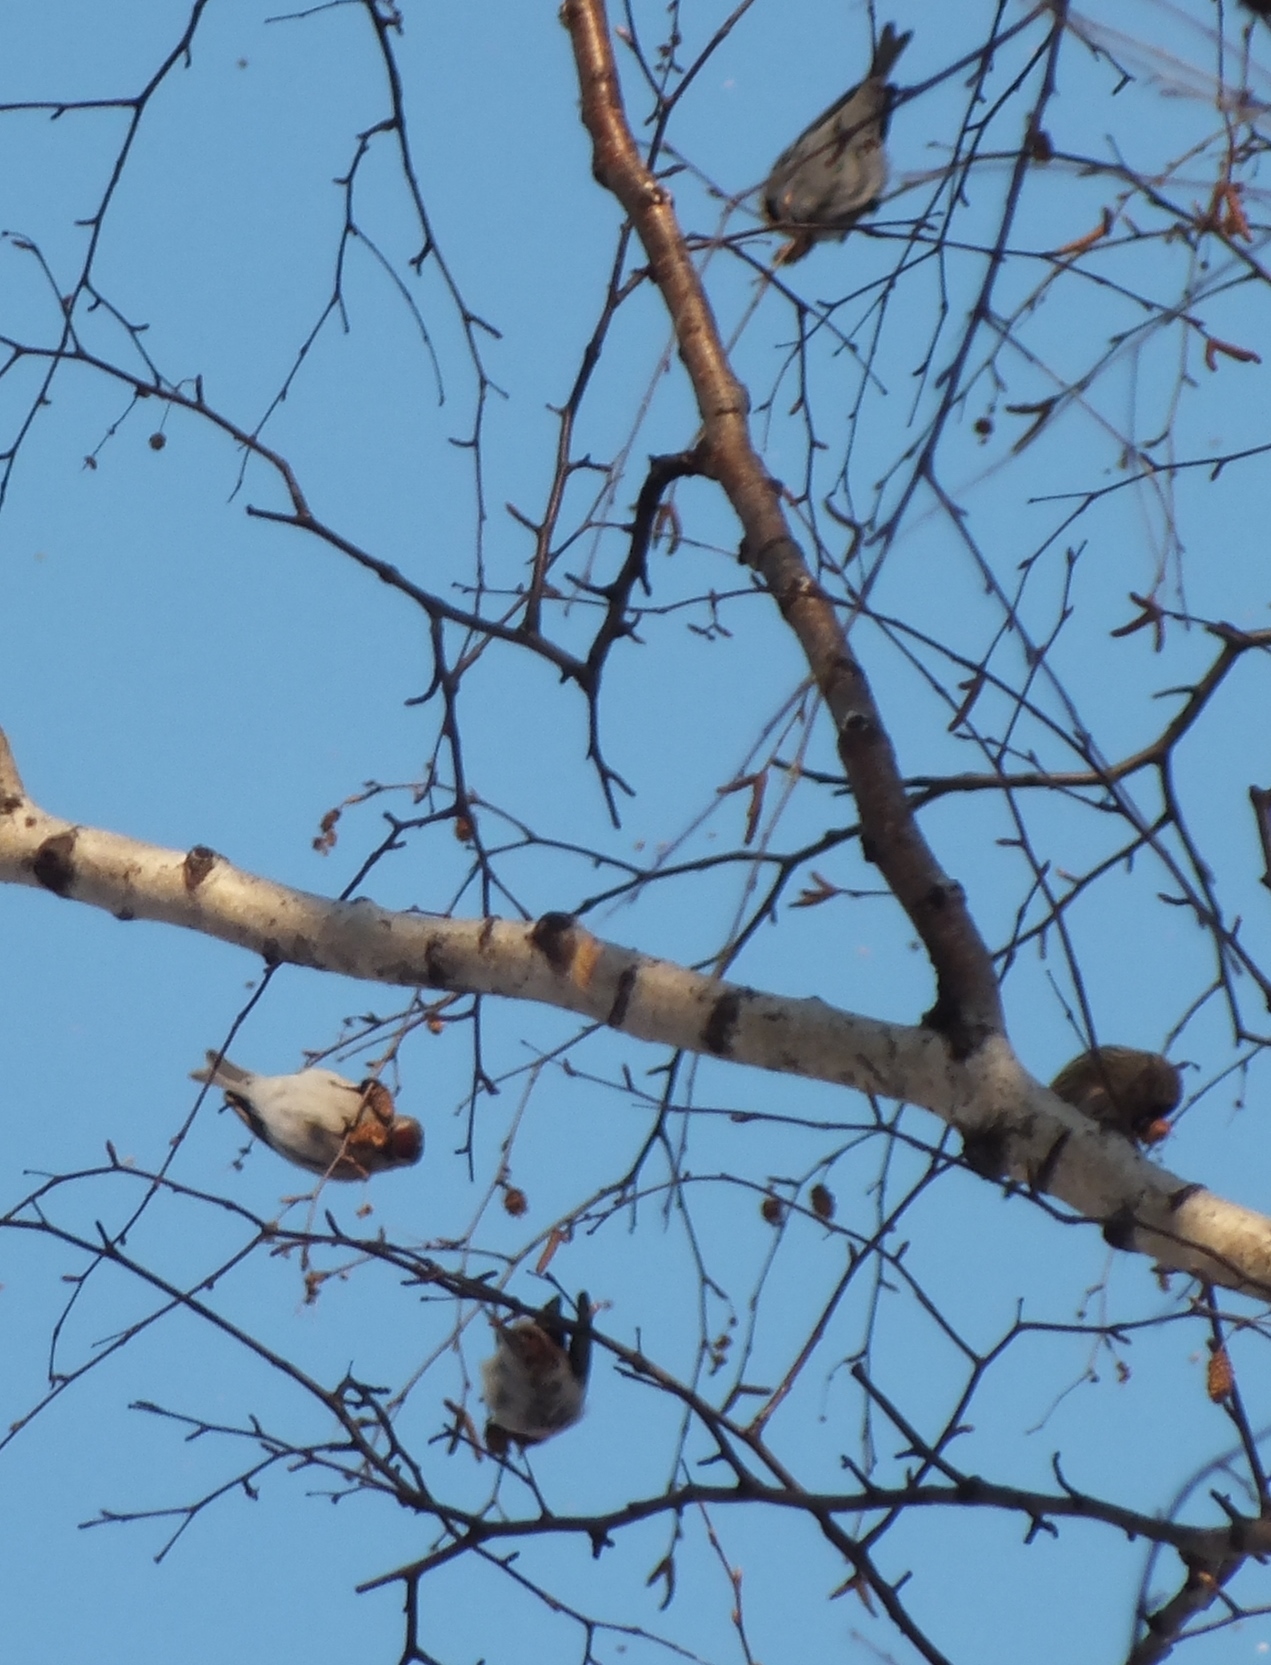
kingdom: Animalia
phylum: Chordata
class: Aves
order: Passeriformes
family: Fringillidae
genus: Acanthis
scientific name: Acanthis flammea
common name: Common redpoll
